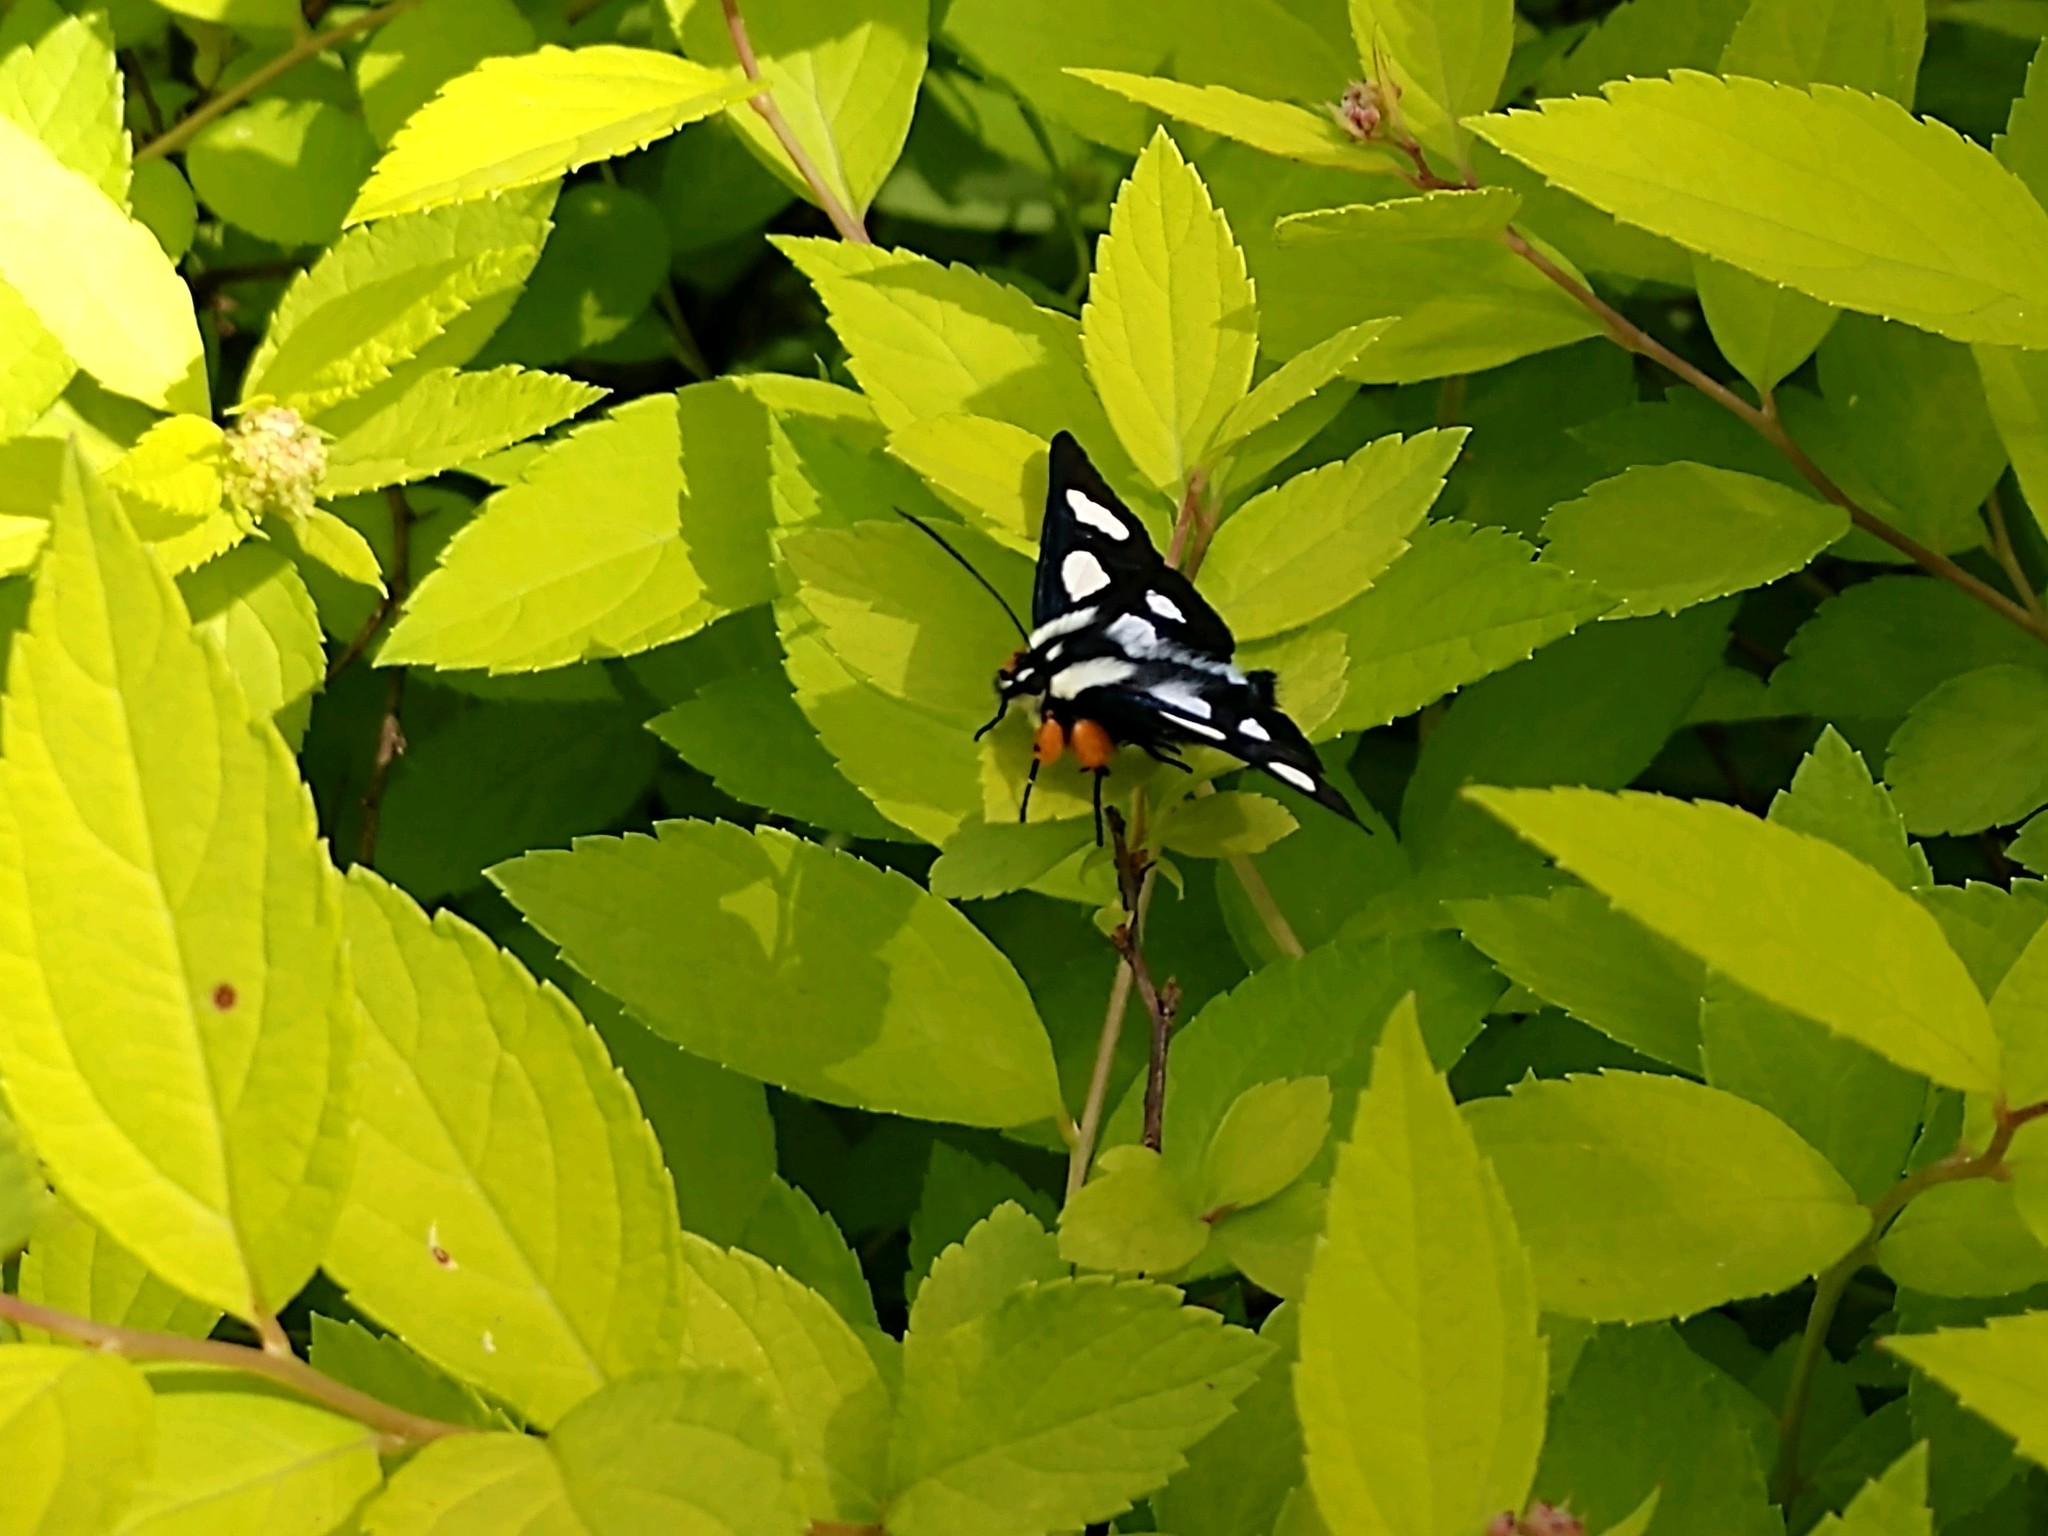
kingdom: Animalia
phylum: Arthropoda
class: Insecta
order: Lepidoptera
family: Noctuidae
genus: Alypia
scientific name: Alypia octomaculata
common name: Eight-spotted forester
